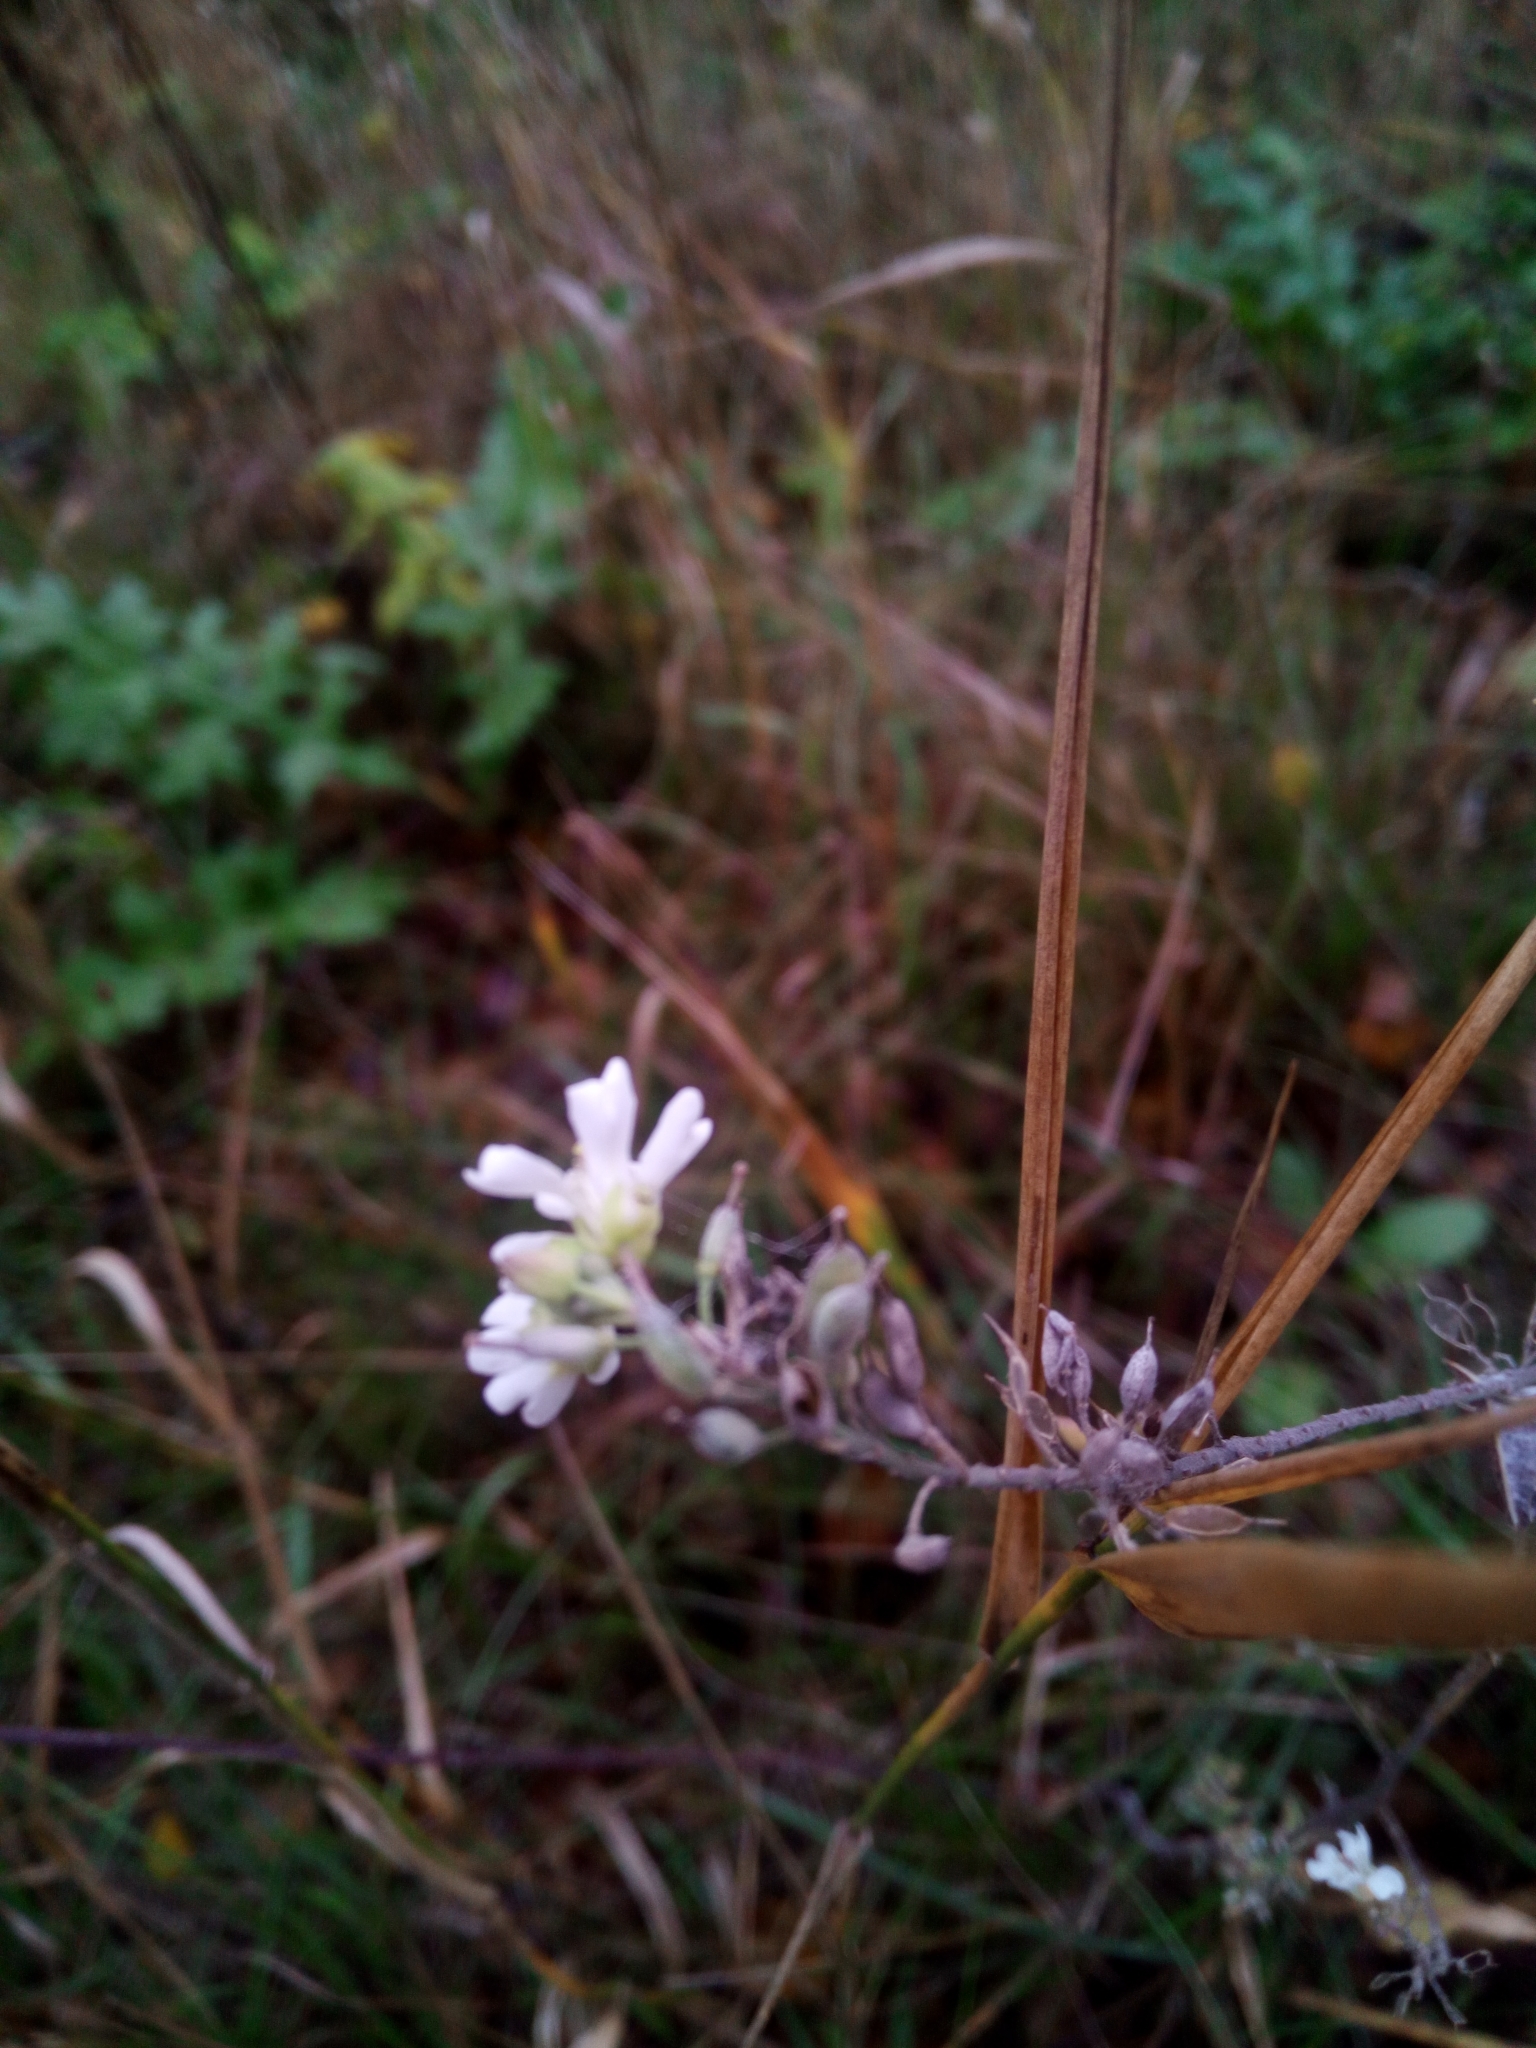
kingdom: Plantae
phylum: Tracheophyta
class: Magnoliopsida
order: Brassicales
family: Brassicaceae
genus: Berteroa
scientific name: Berteroa incana
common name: Hoary alison
